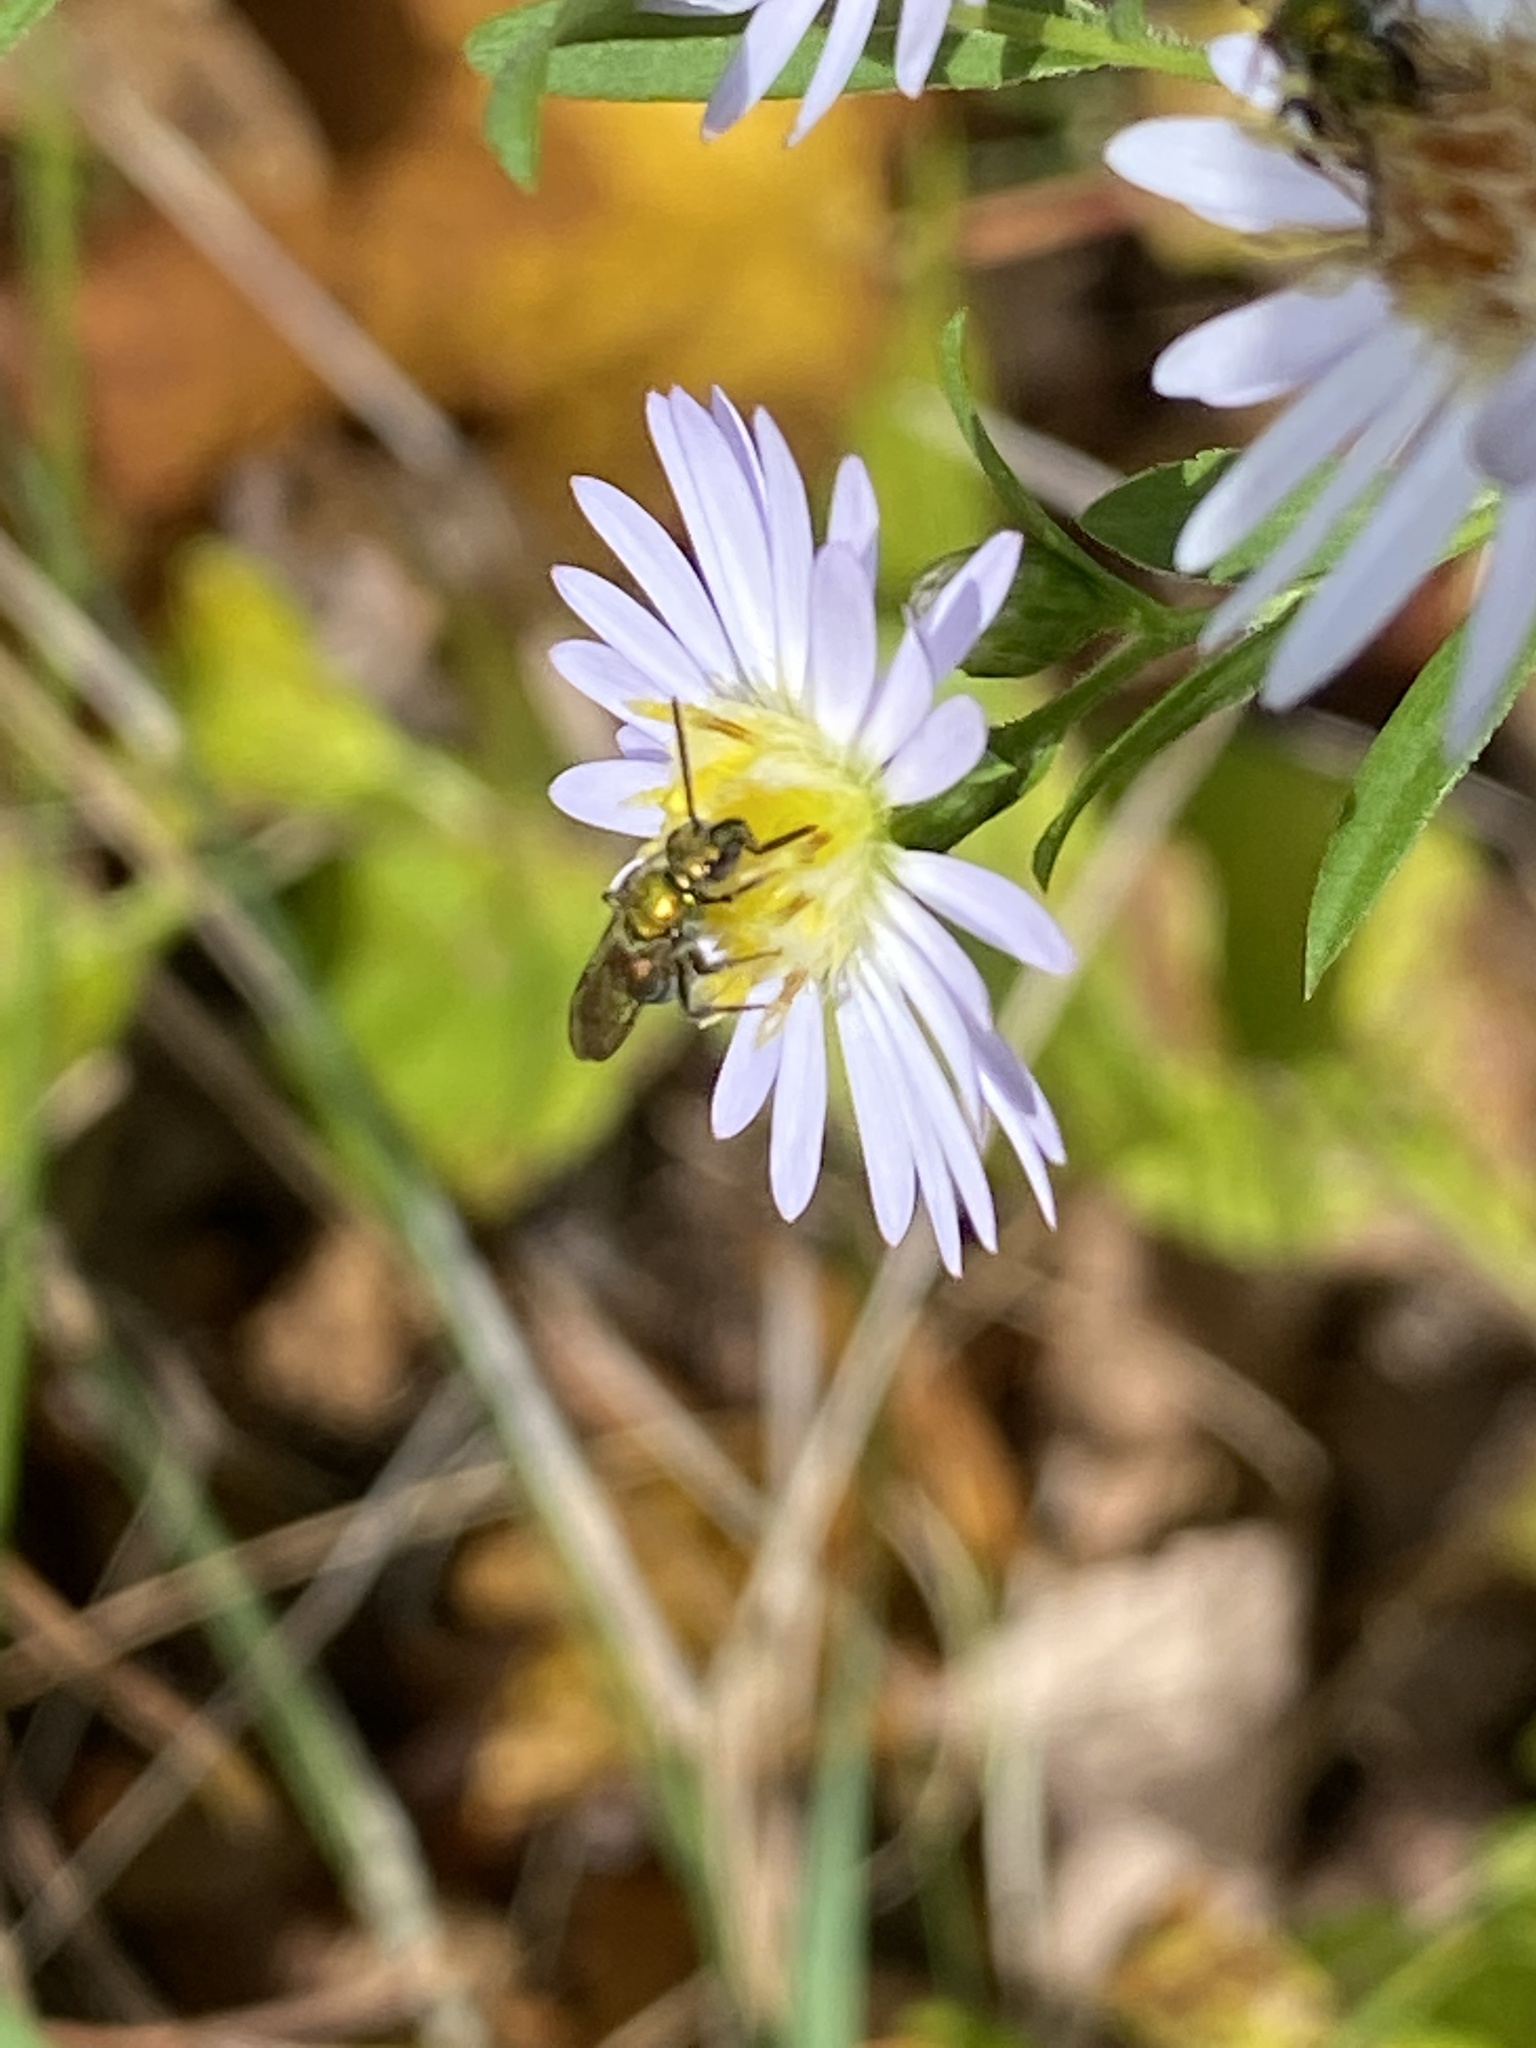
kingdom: Animalia
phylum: Arthropoda
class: Insecta
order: Hymenoptera
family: Halictidae
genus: Augochlora
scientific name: Augochlora pura
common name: Pure green sweat bee
